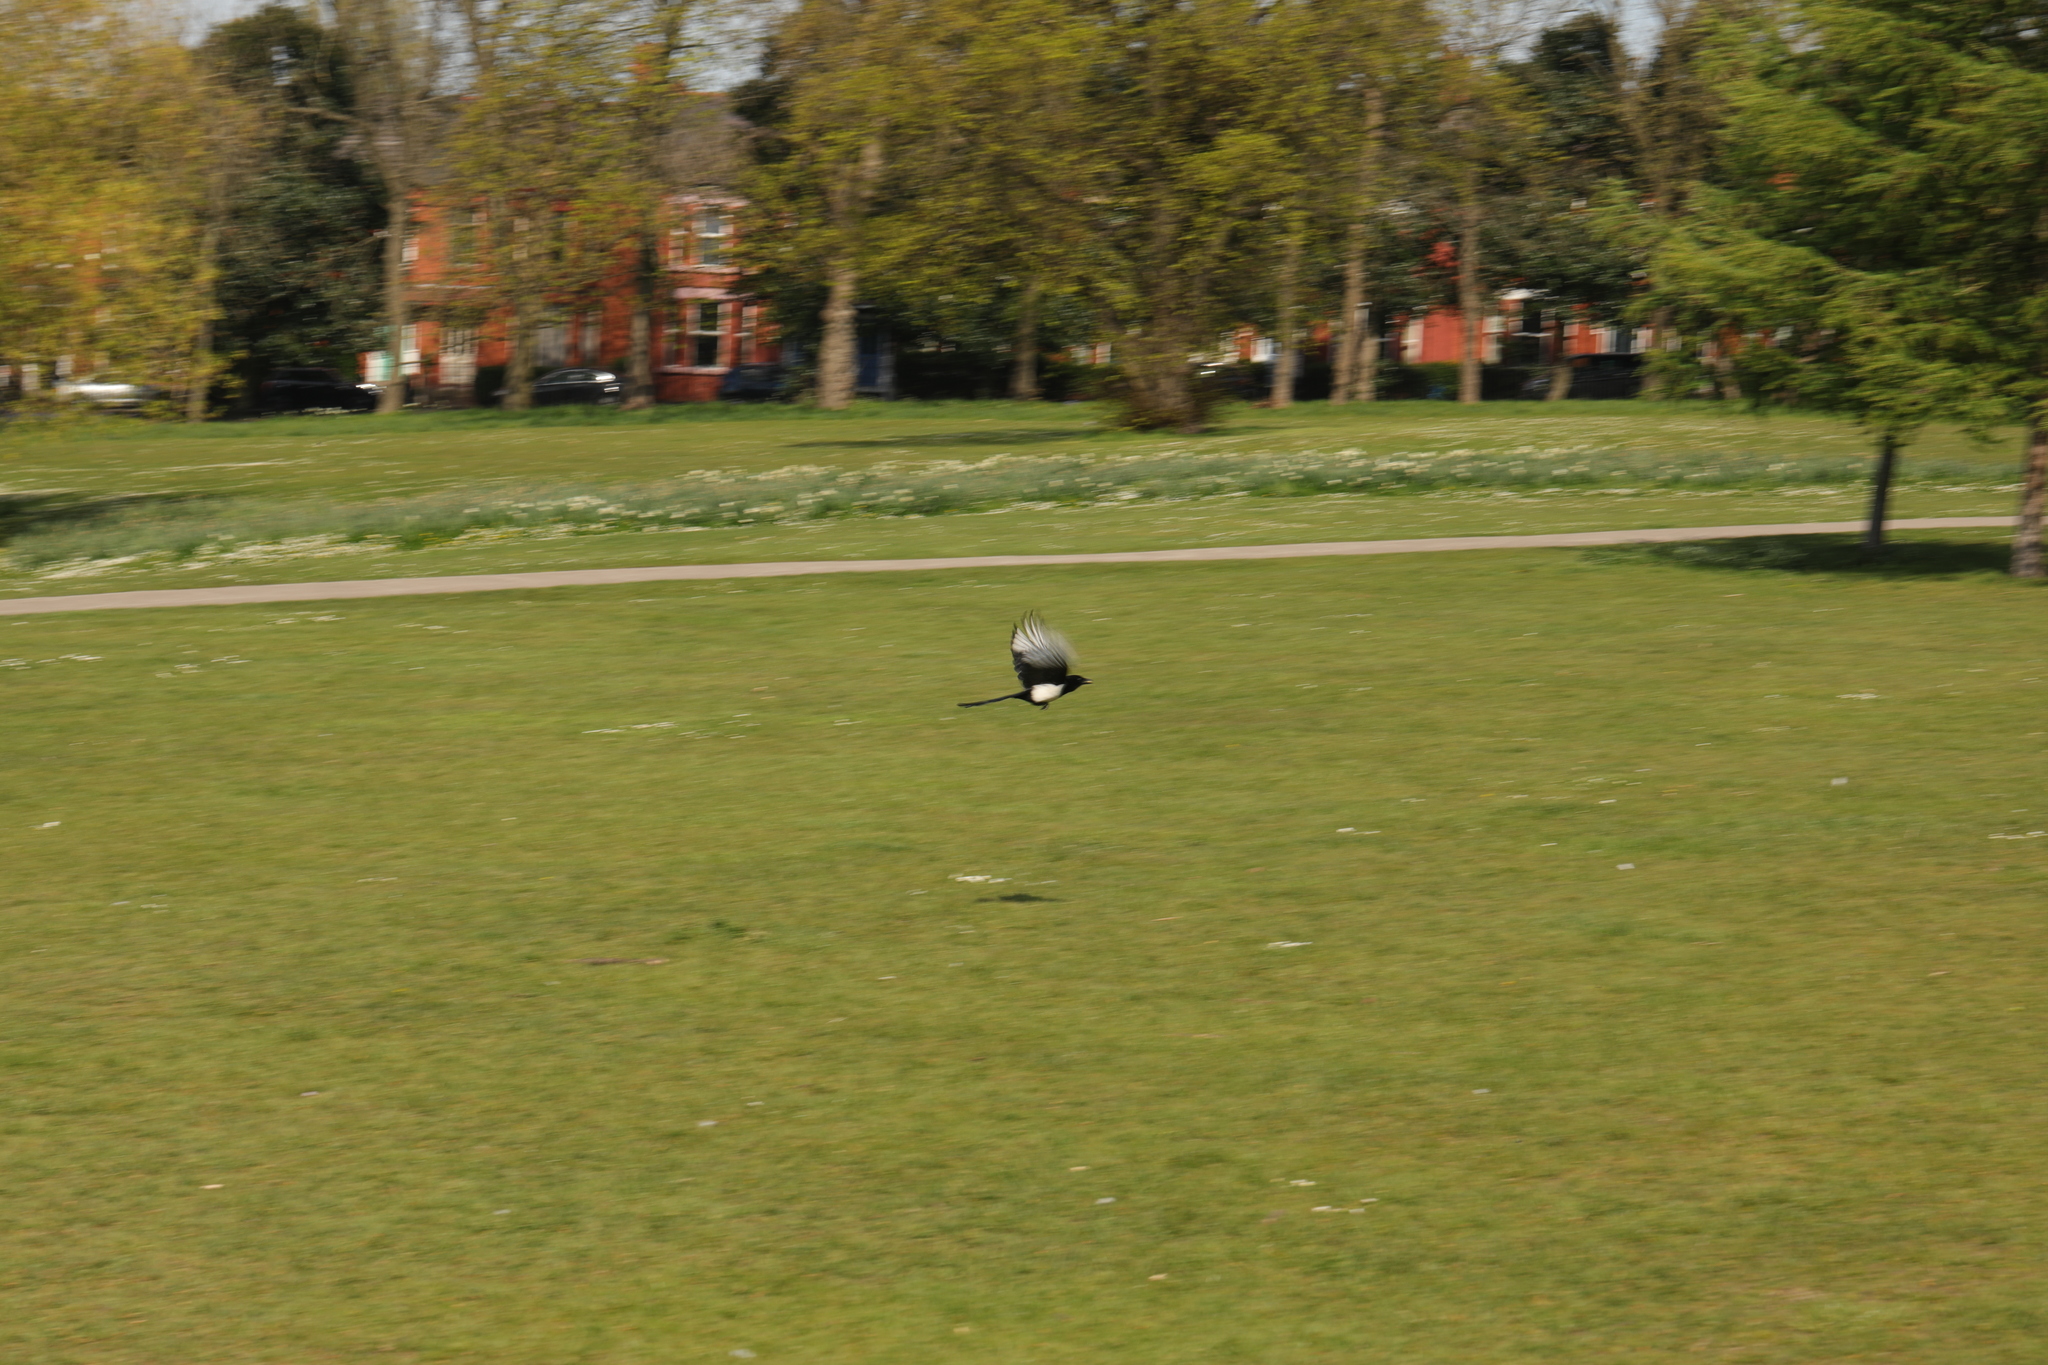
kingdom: Animalia
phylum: Chordata
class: Aves
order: Passeriformes
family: Corvidae
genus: Pica
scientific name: Pica pica
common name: Eurasian magpie
